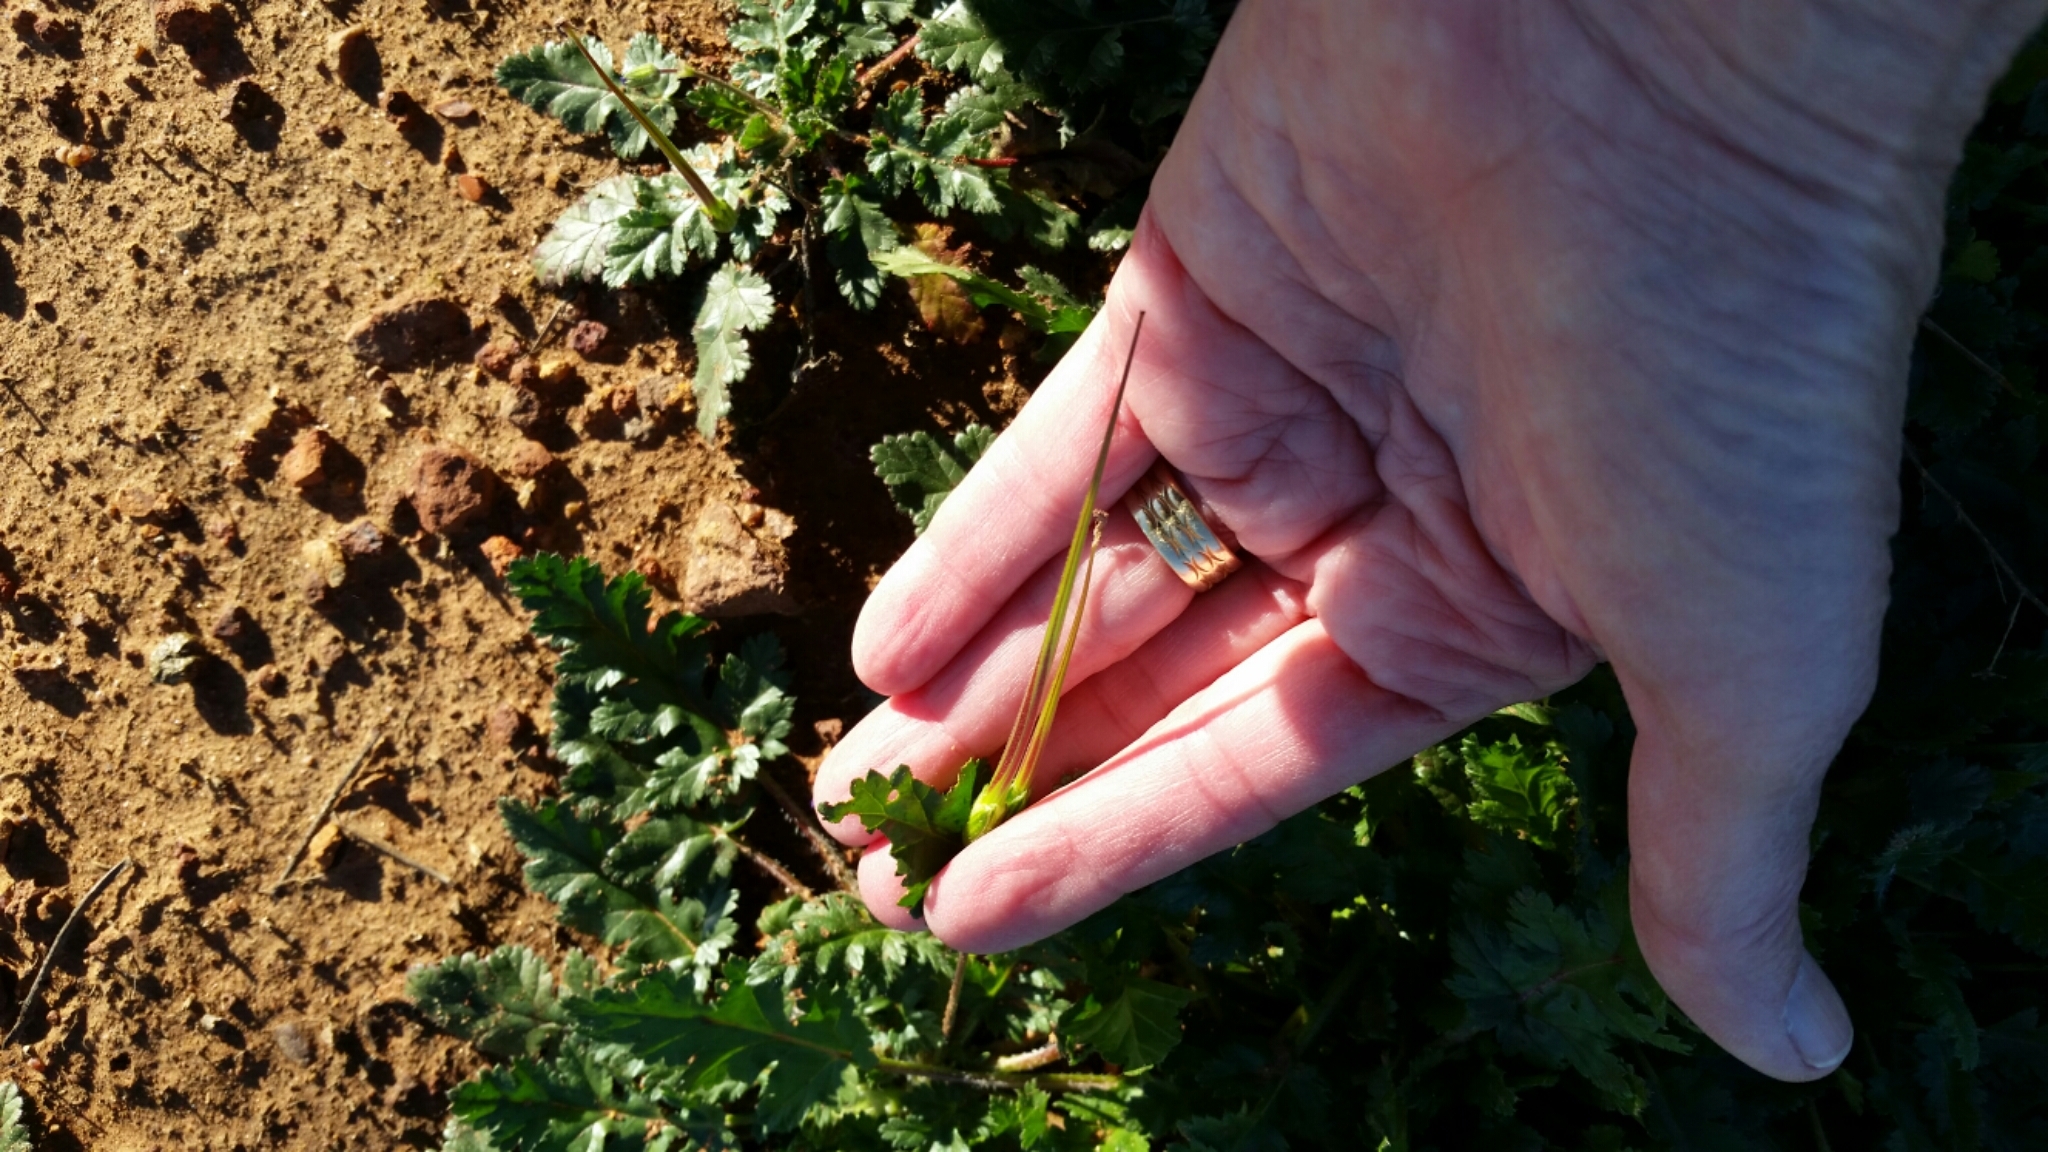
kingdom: Plantae
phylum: Tracheophyta
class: Magnoliopsida
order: Geraniales
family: Geraniaceae
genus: Erodium
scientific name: Erodium
